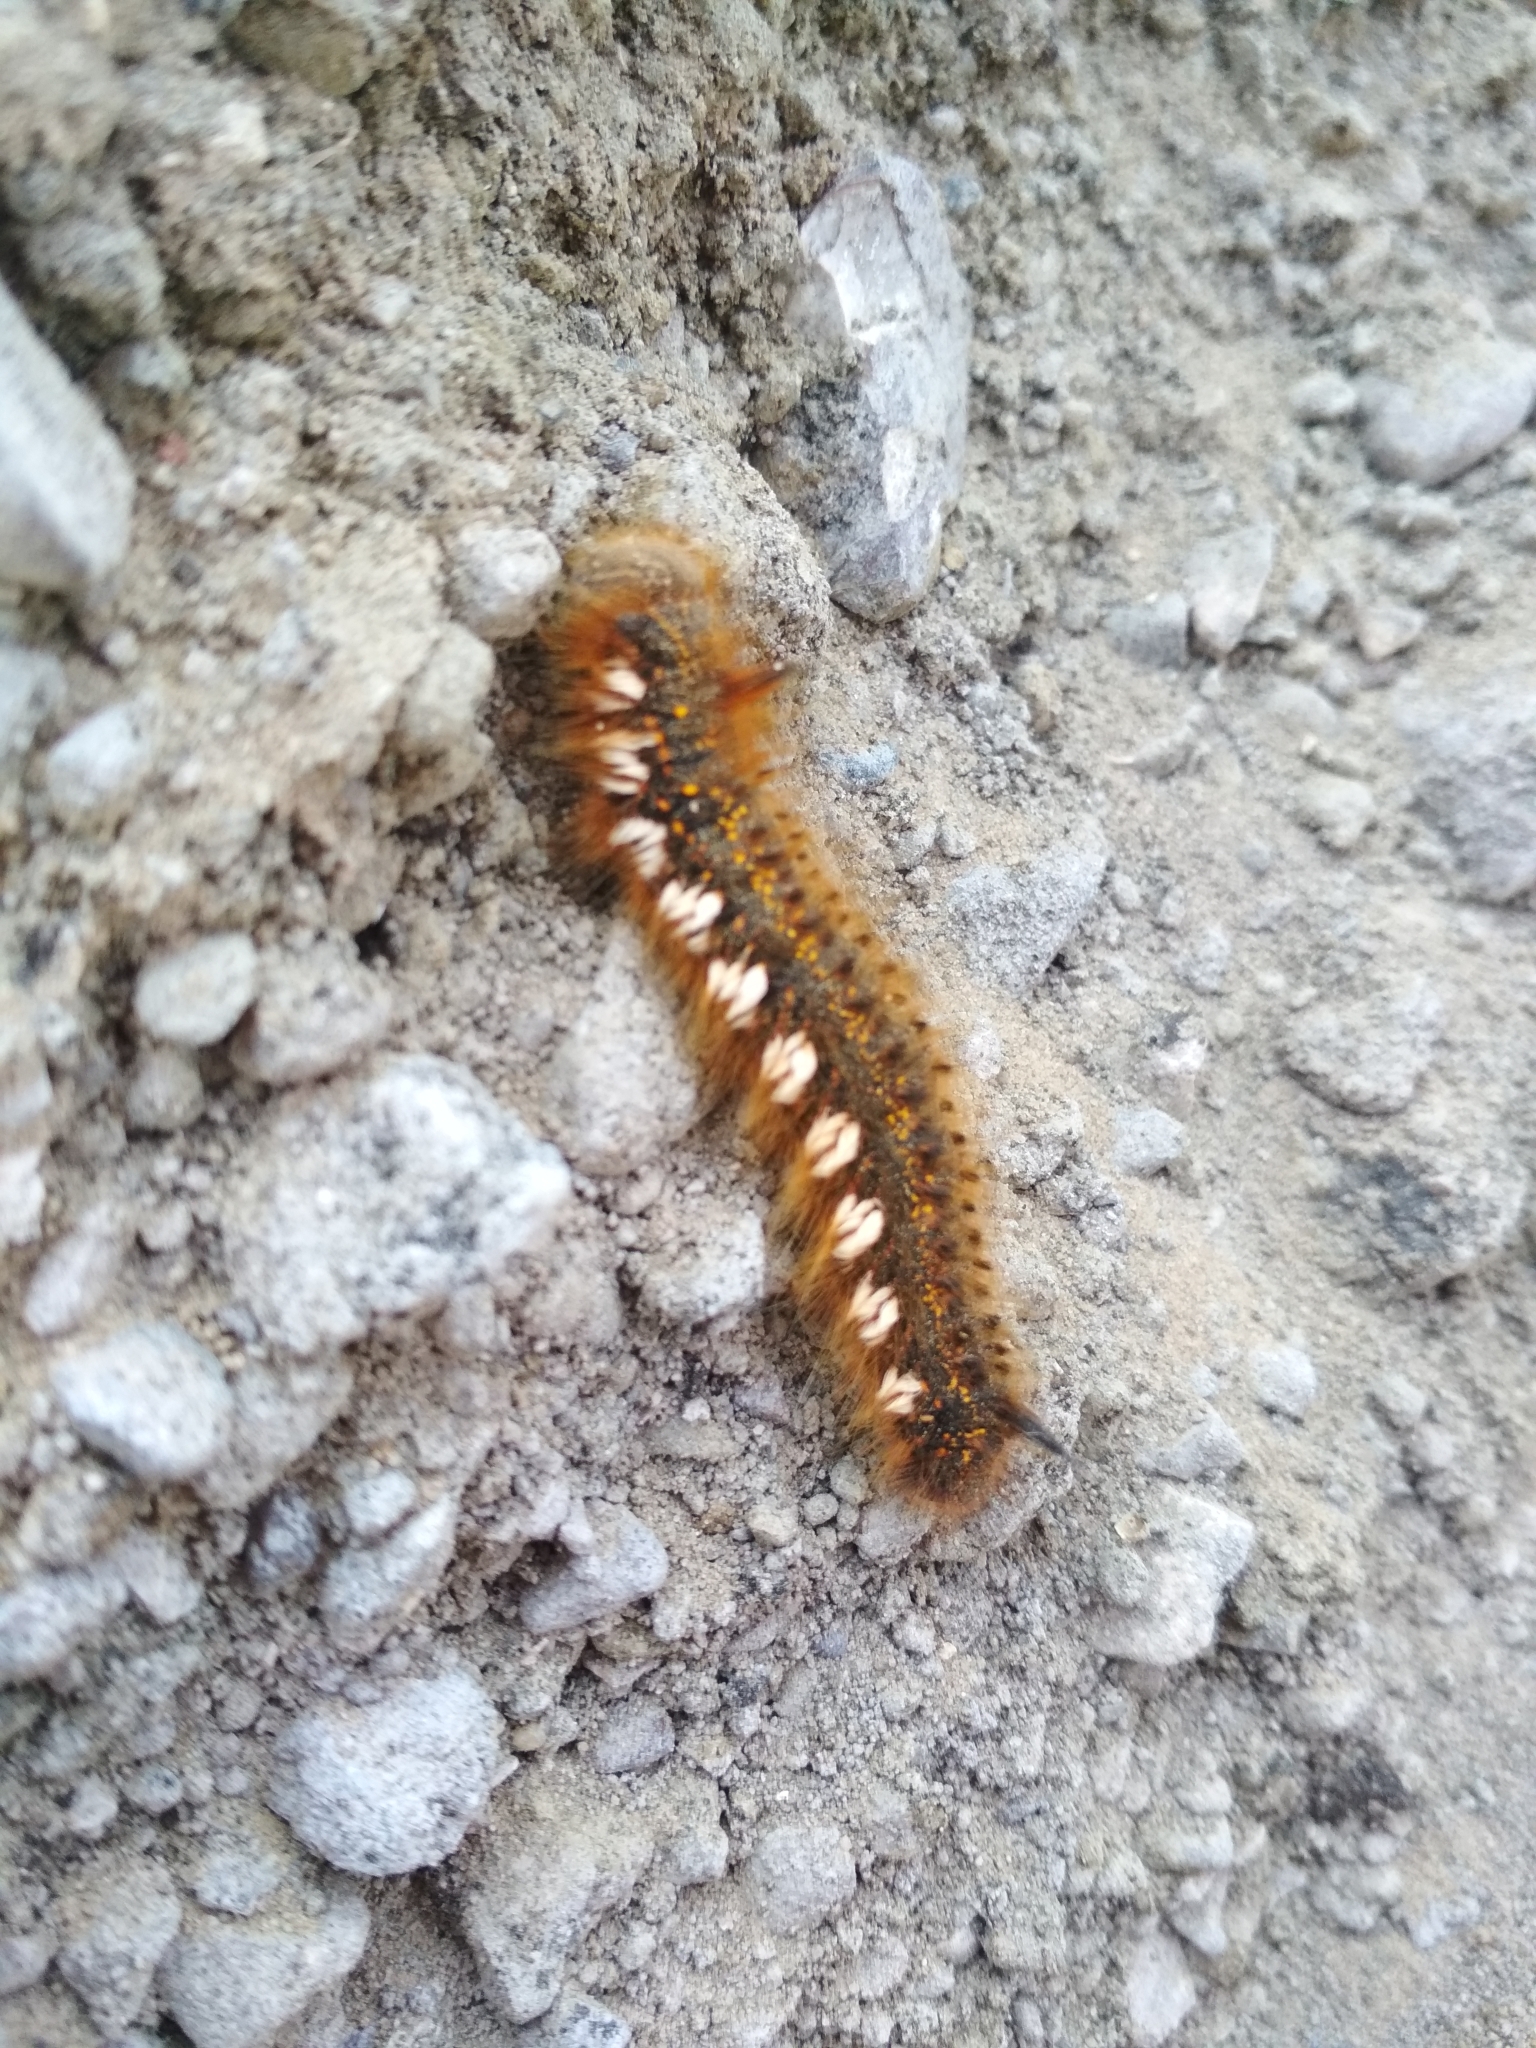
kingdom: Animalia
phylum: Arthropoda
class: Insecta
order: Lepidoptera
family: Lasiocampidae
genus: Euthrix
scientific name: Euthrix potatoria
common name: Drinker
